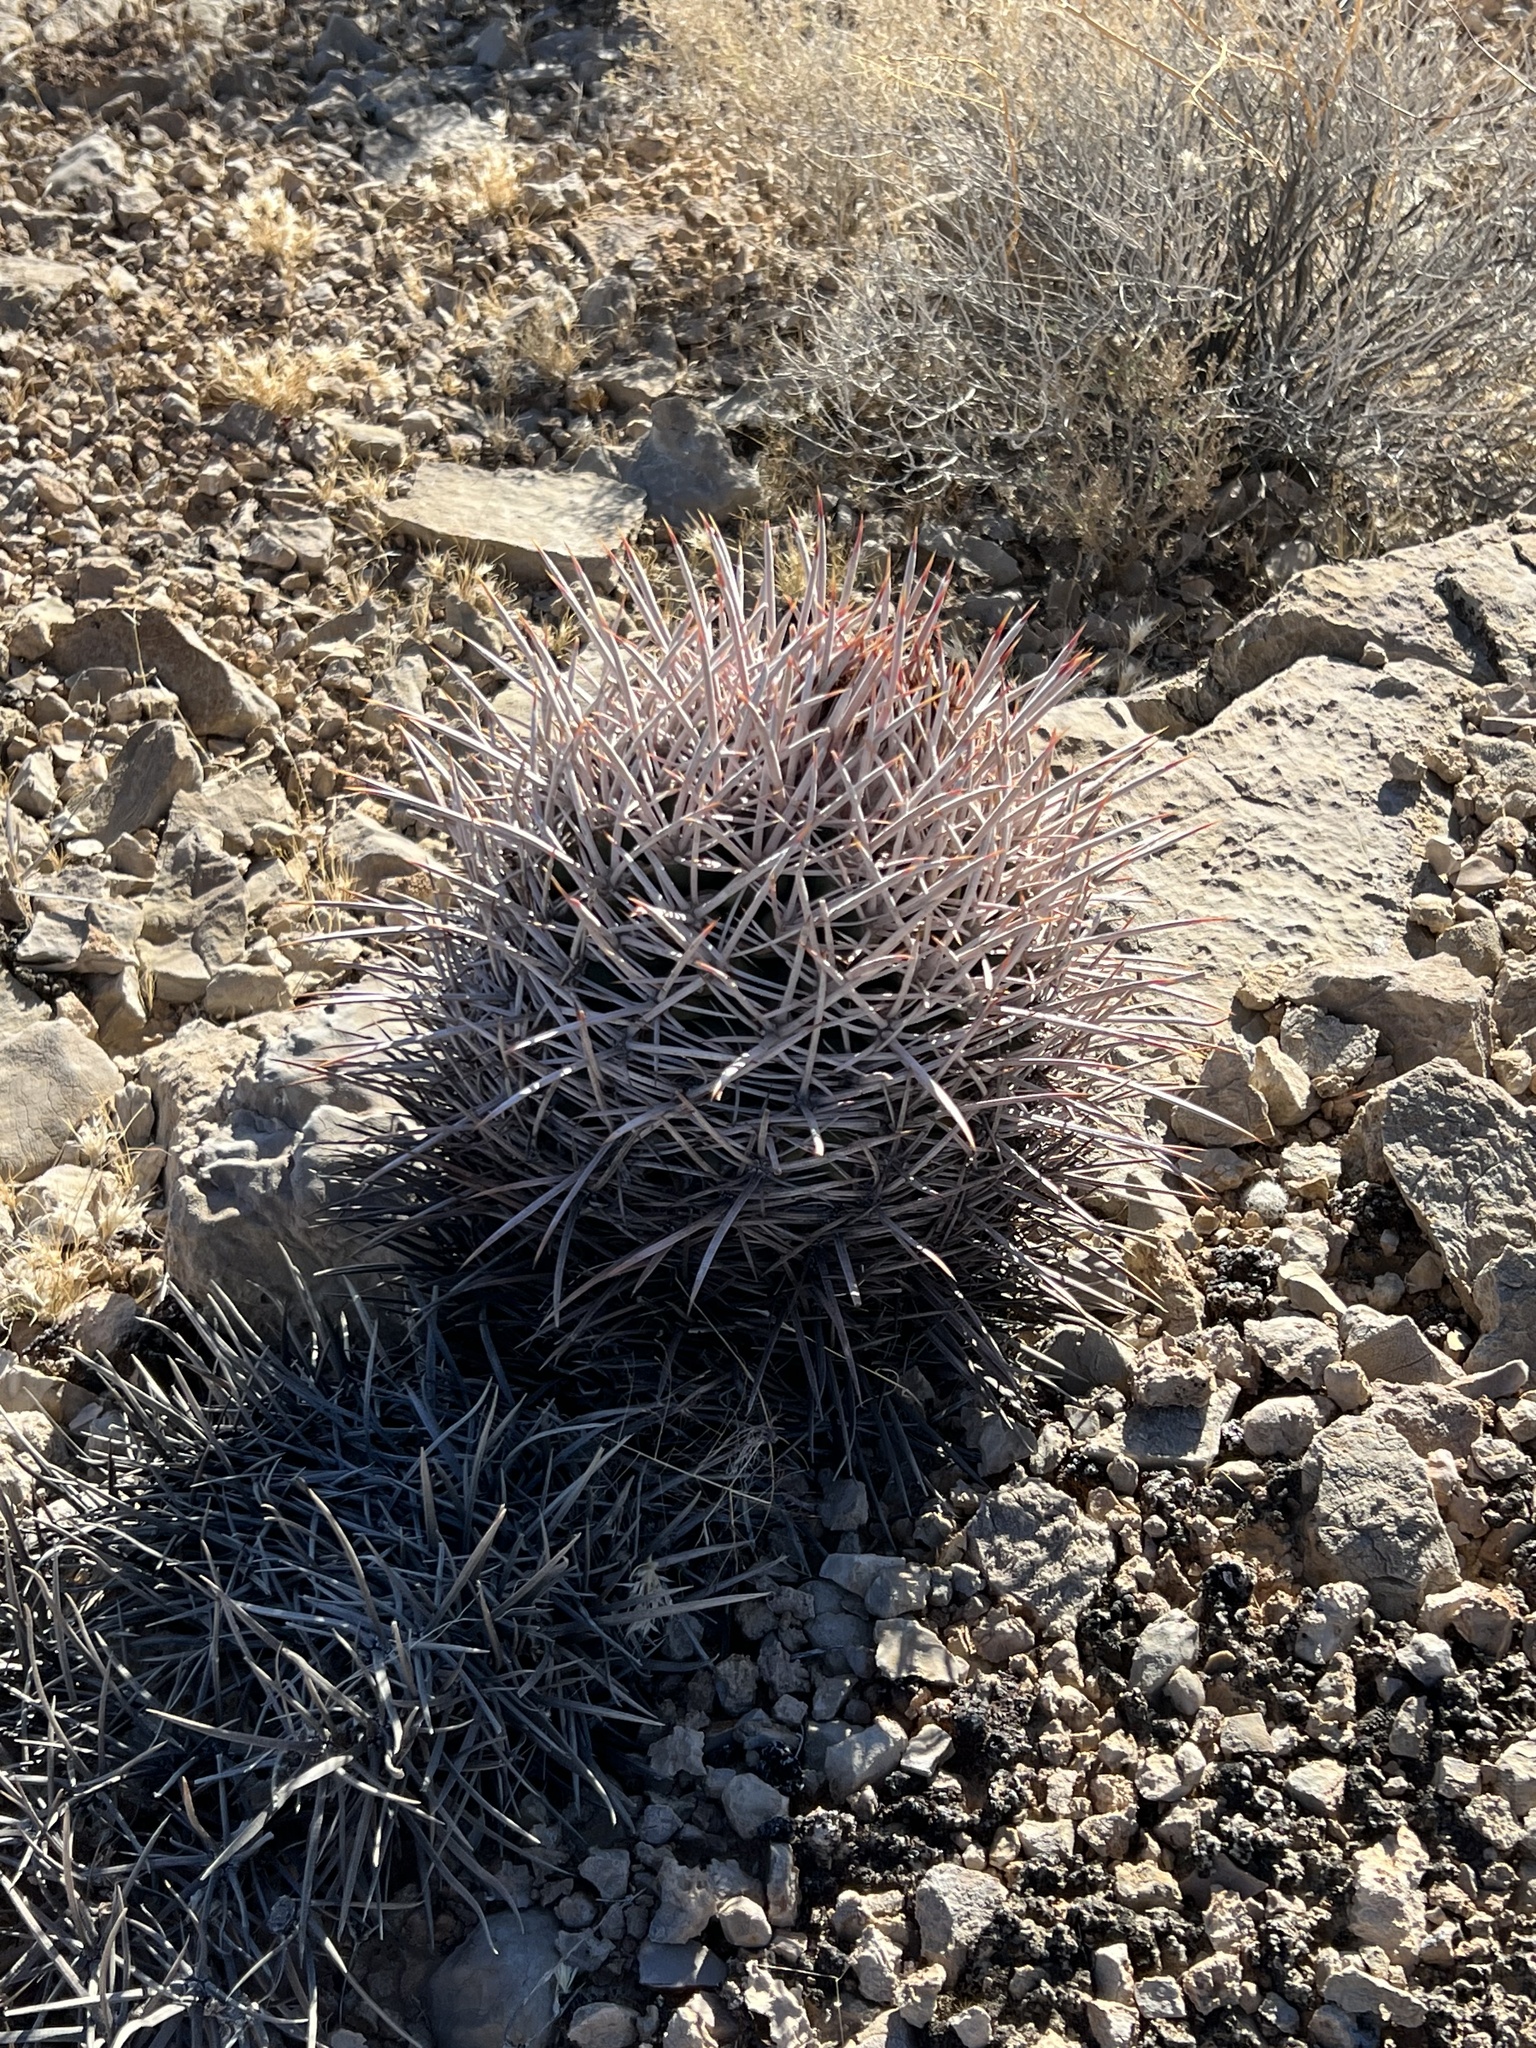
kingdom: Plantae
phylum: Tracheophyta
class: Magnoliopsida
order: Caryophyllales
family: Cactaceae
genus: Echinocactus
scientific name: Echinocactus polycephalus
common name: Cottontop cactus
